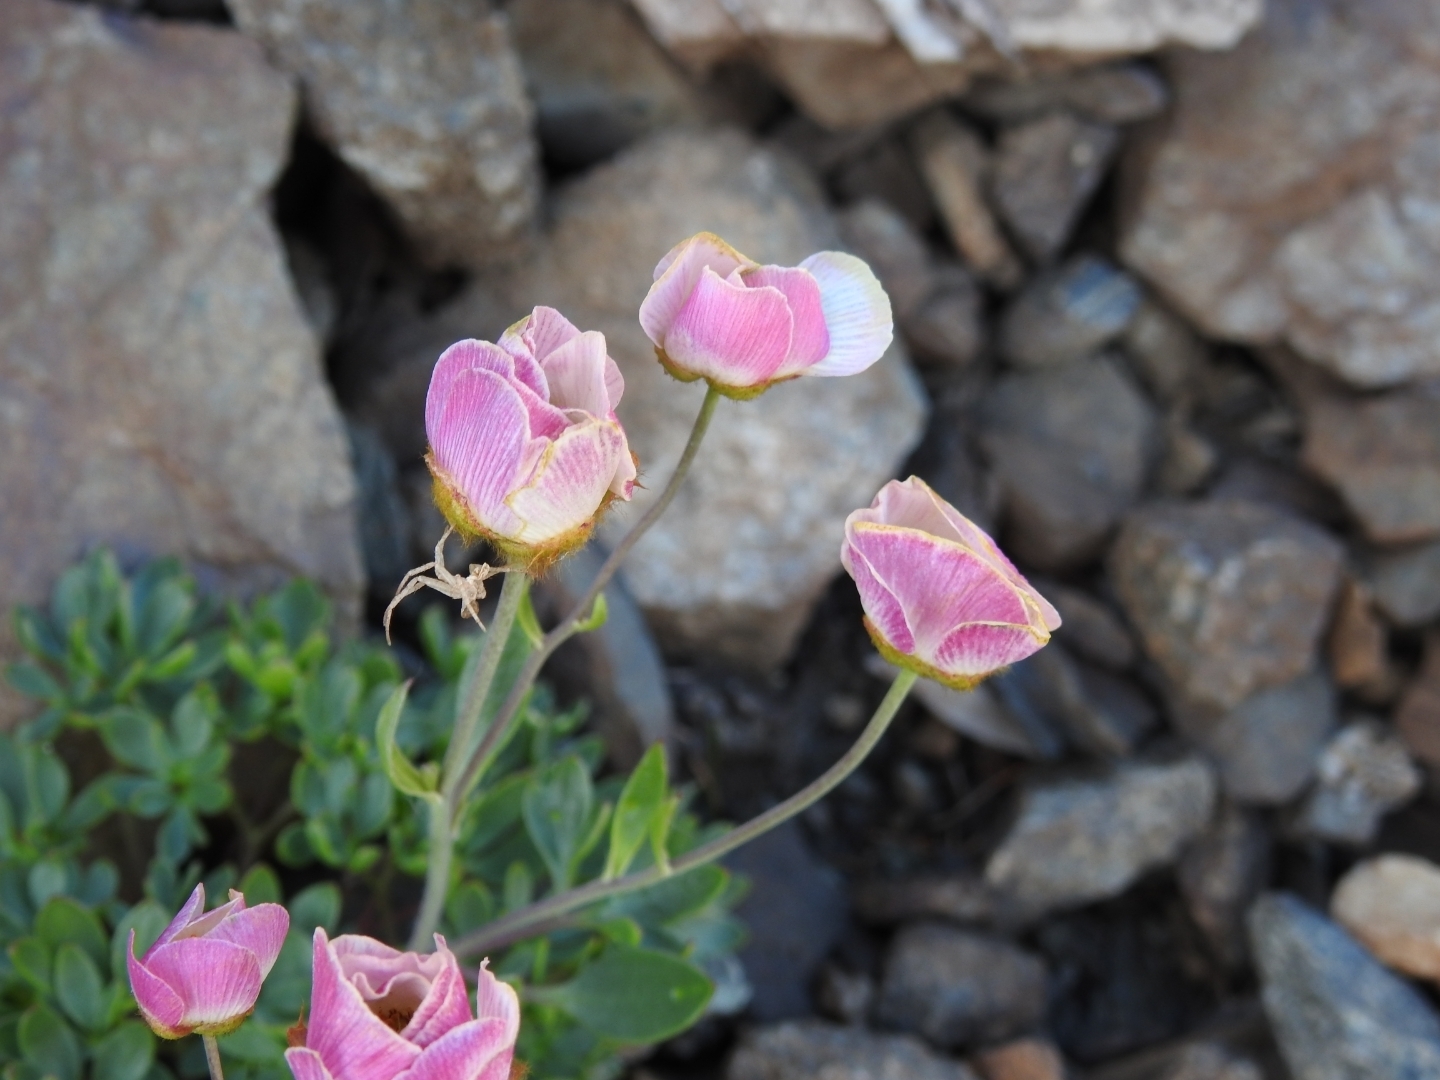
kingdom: Plantae
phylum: Tracheophyta
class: Magnoliopsida
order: Ranunculales
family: Ranunculaceae
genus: Ranunculus
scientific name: Ranunculus glacialis
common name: Glacier buttercup
